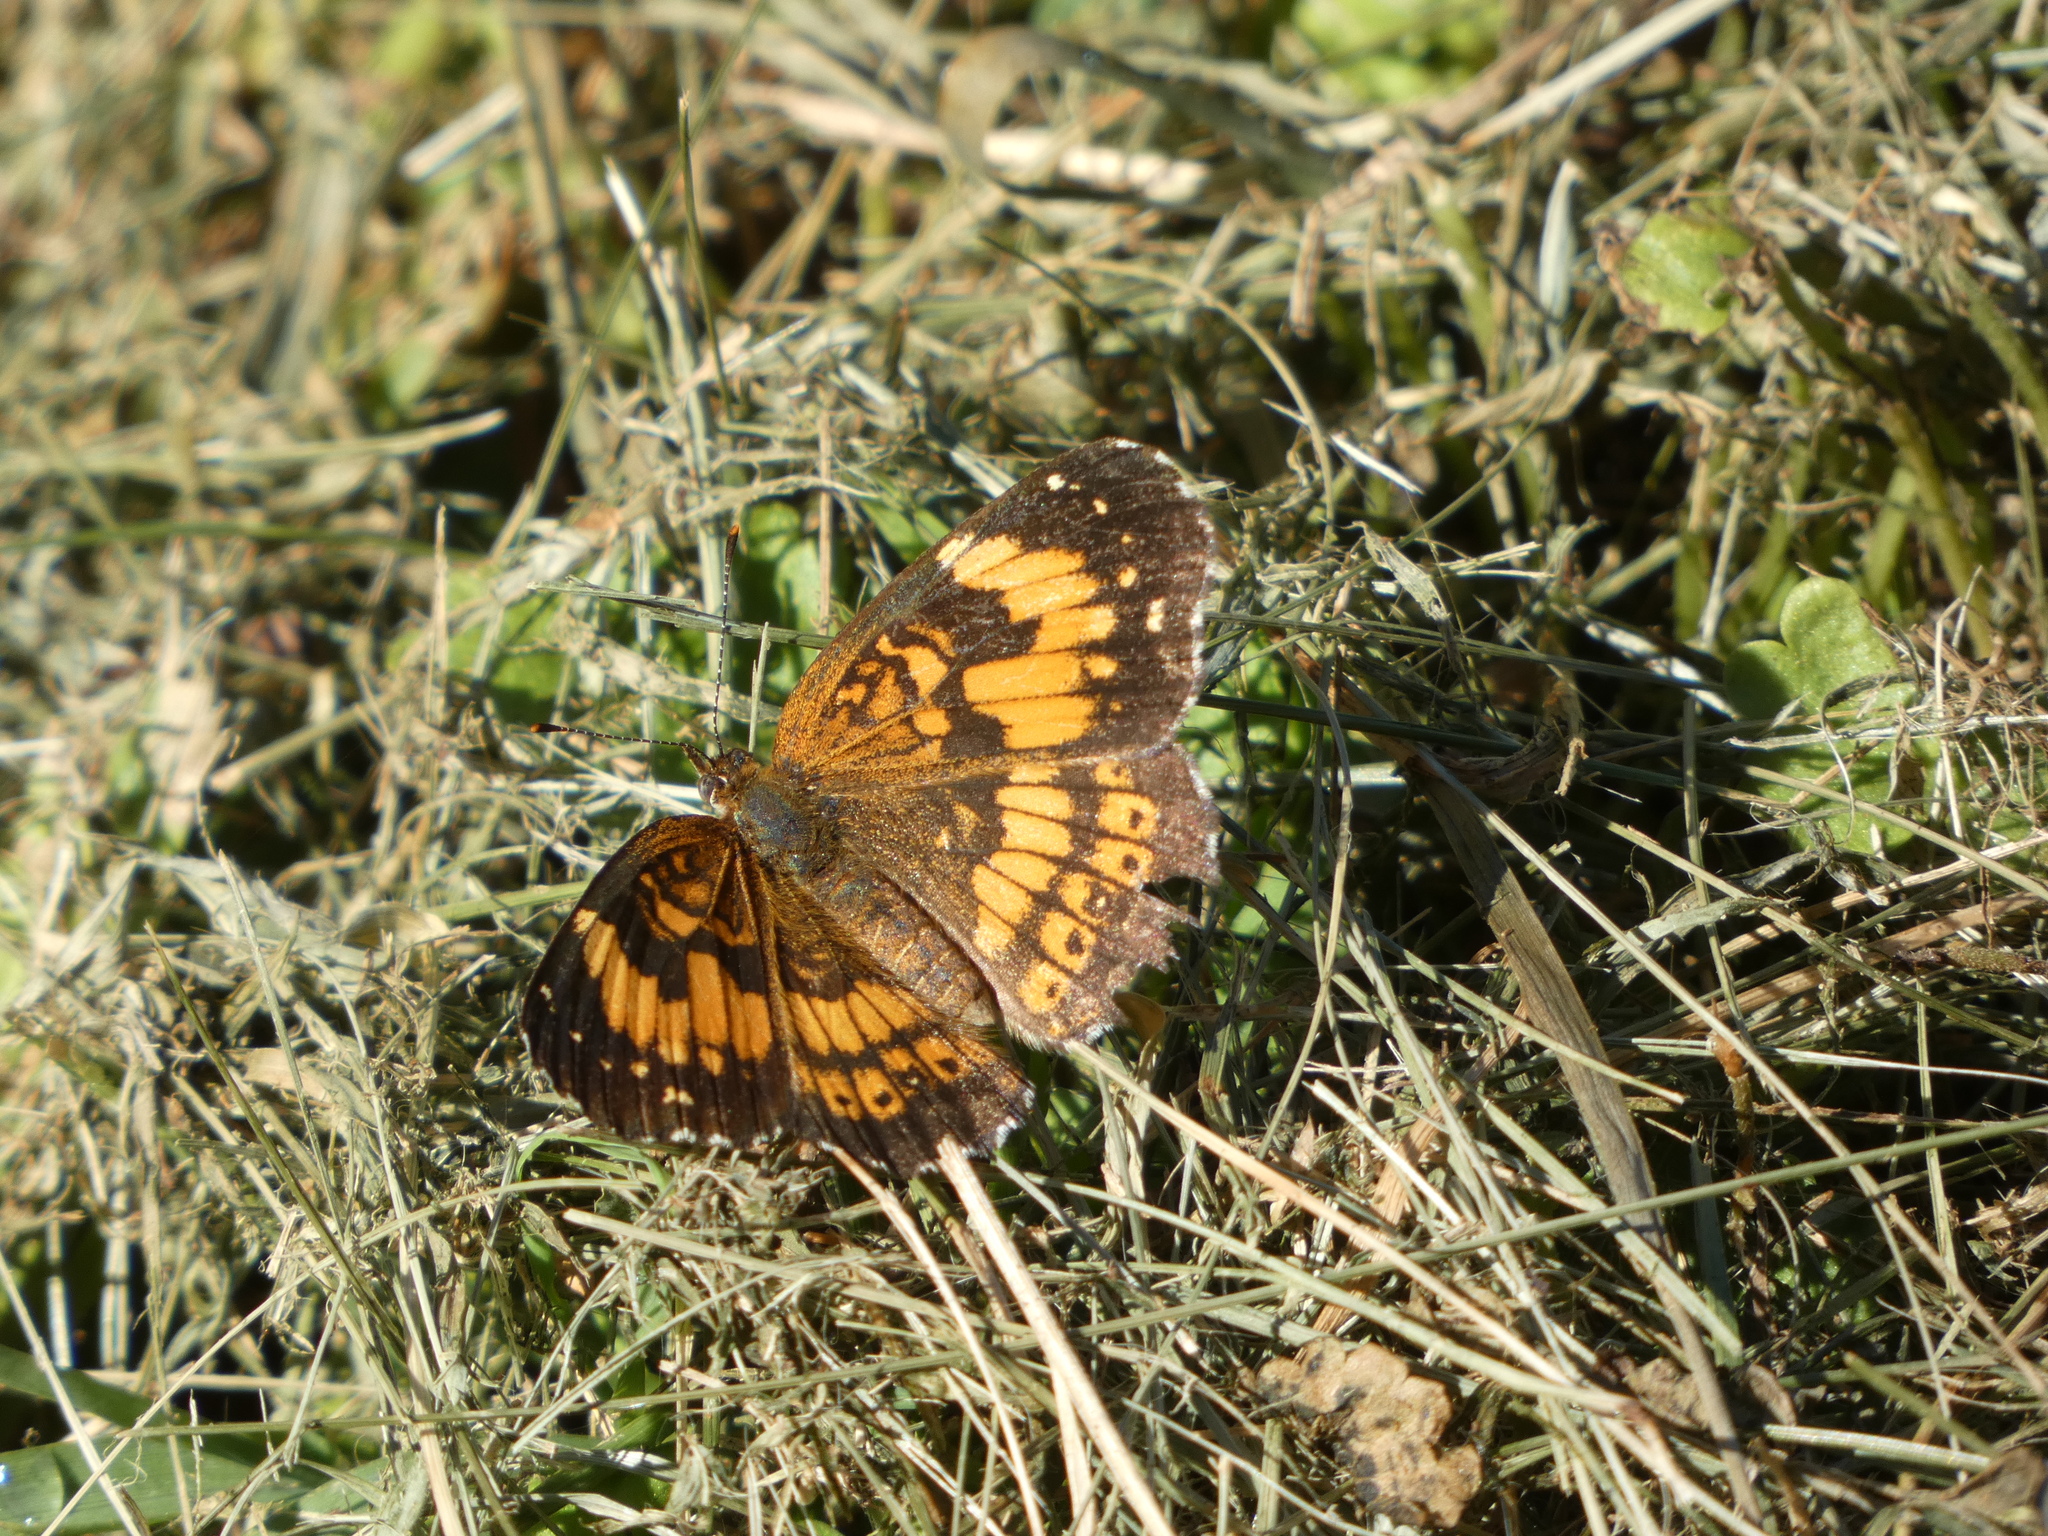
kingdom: Animalia
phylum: Arthropoda
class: Insecta
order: Lepidoptera
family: Nymphalidae
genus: Phyciodes
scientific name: Phyciodes tharos
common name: Pearl crescent
